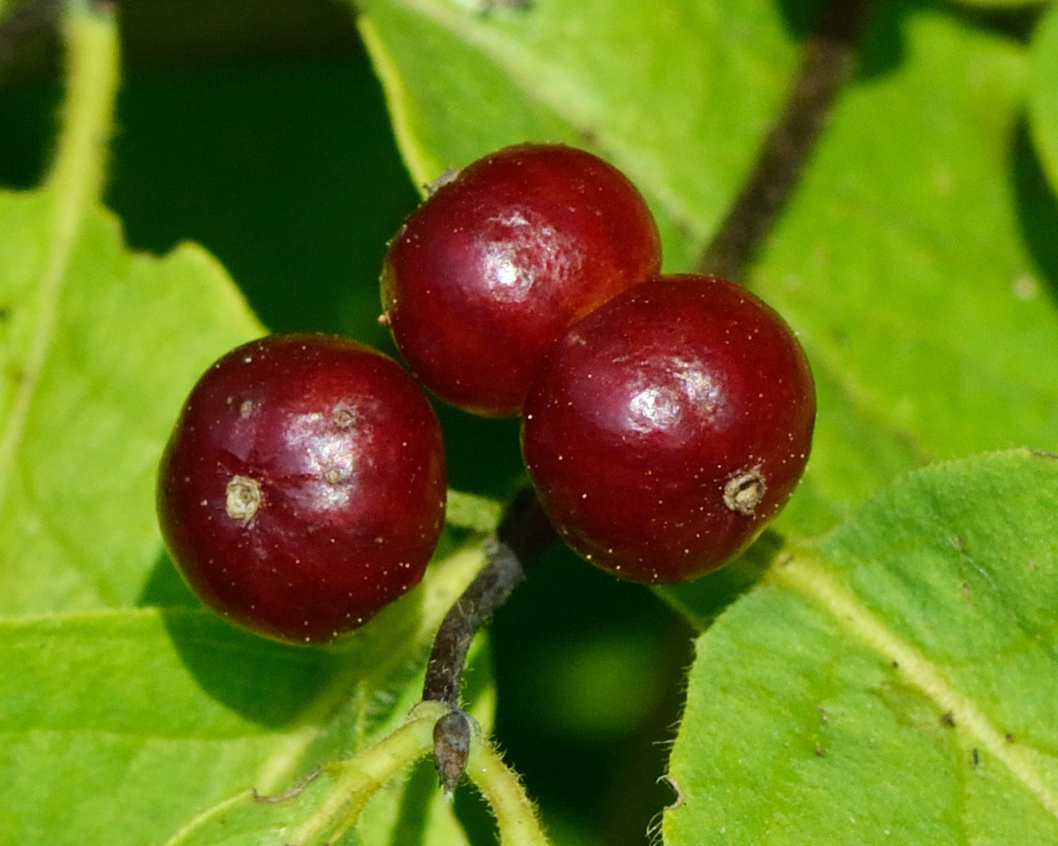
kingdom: Plantae
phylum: Tracheophyta
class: Magnoliopsida
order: Dipsacales
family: Caprifoliaceae
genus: Lonicera
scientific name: Lonicera xylosteum
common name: Fly honeysuckle
